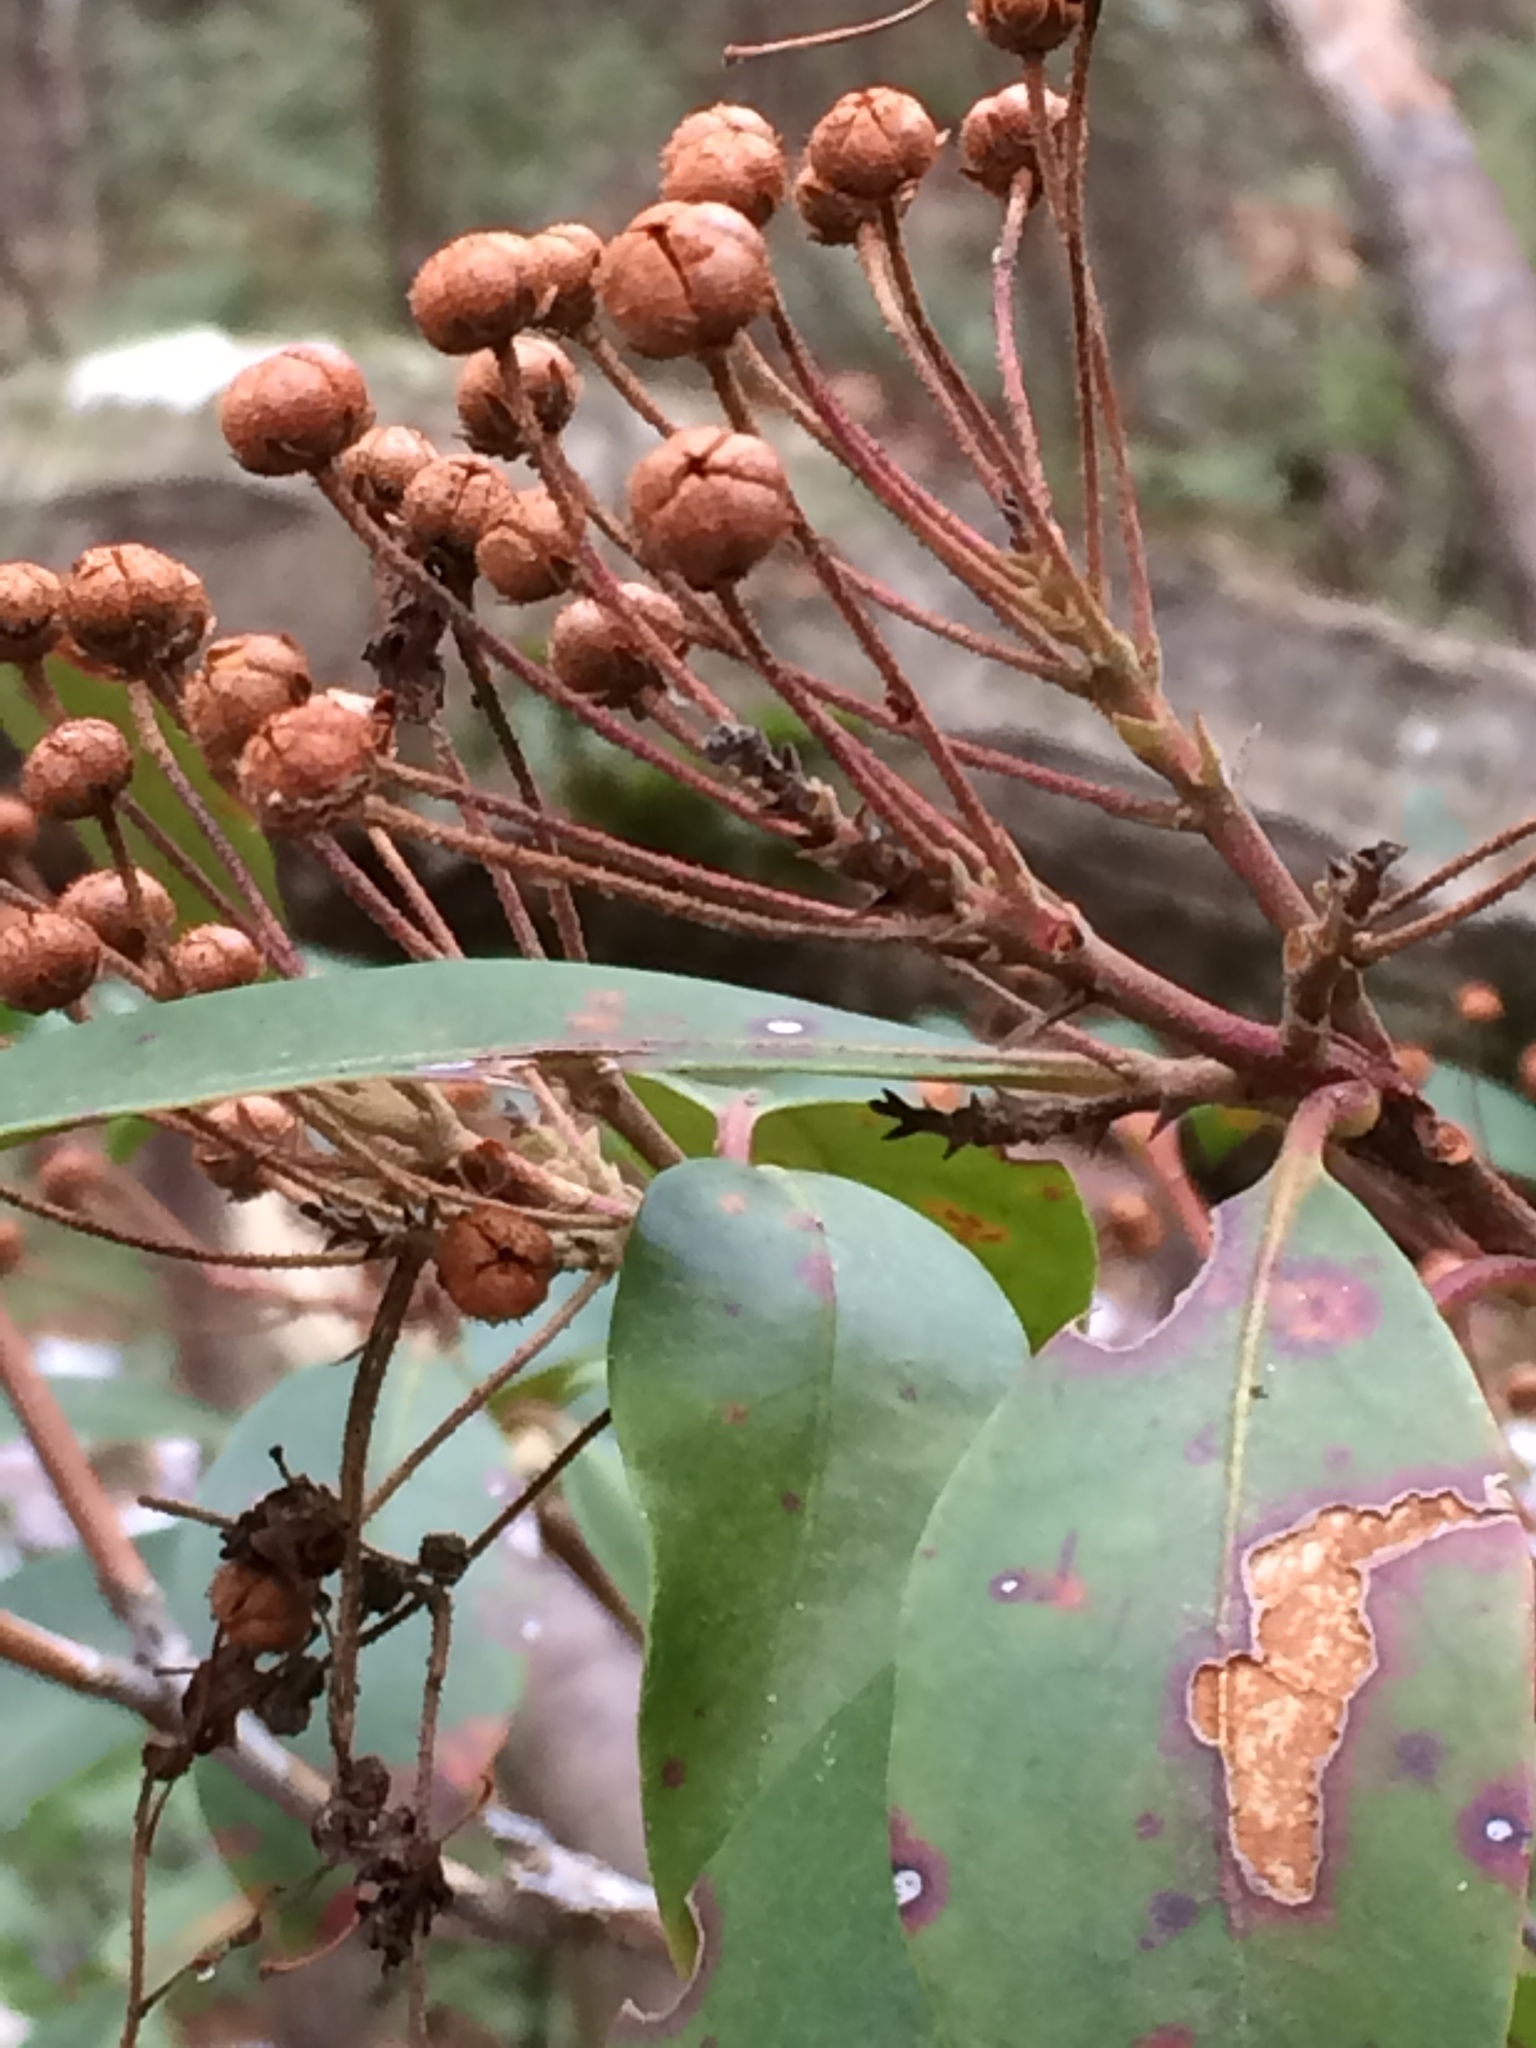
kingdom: Plantae
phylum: Tracheophyta
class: Magnoliopsida
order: Ericales
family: Ericaceae
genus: Kalmia
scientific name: Kalmia latifolia
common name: Mountain-laurel
